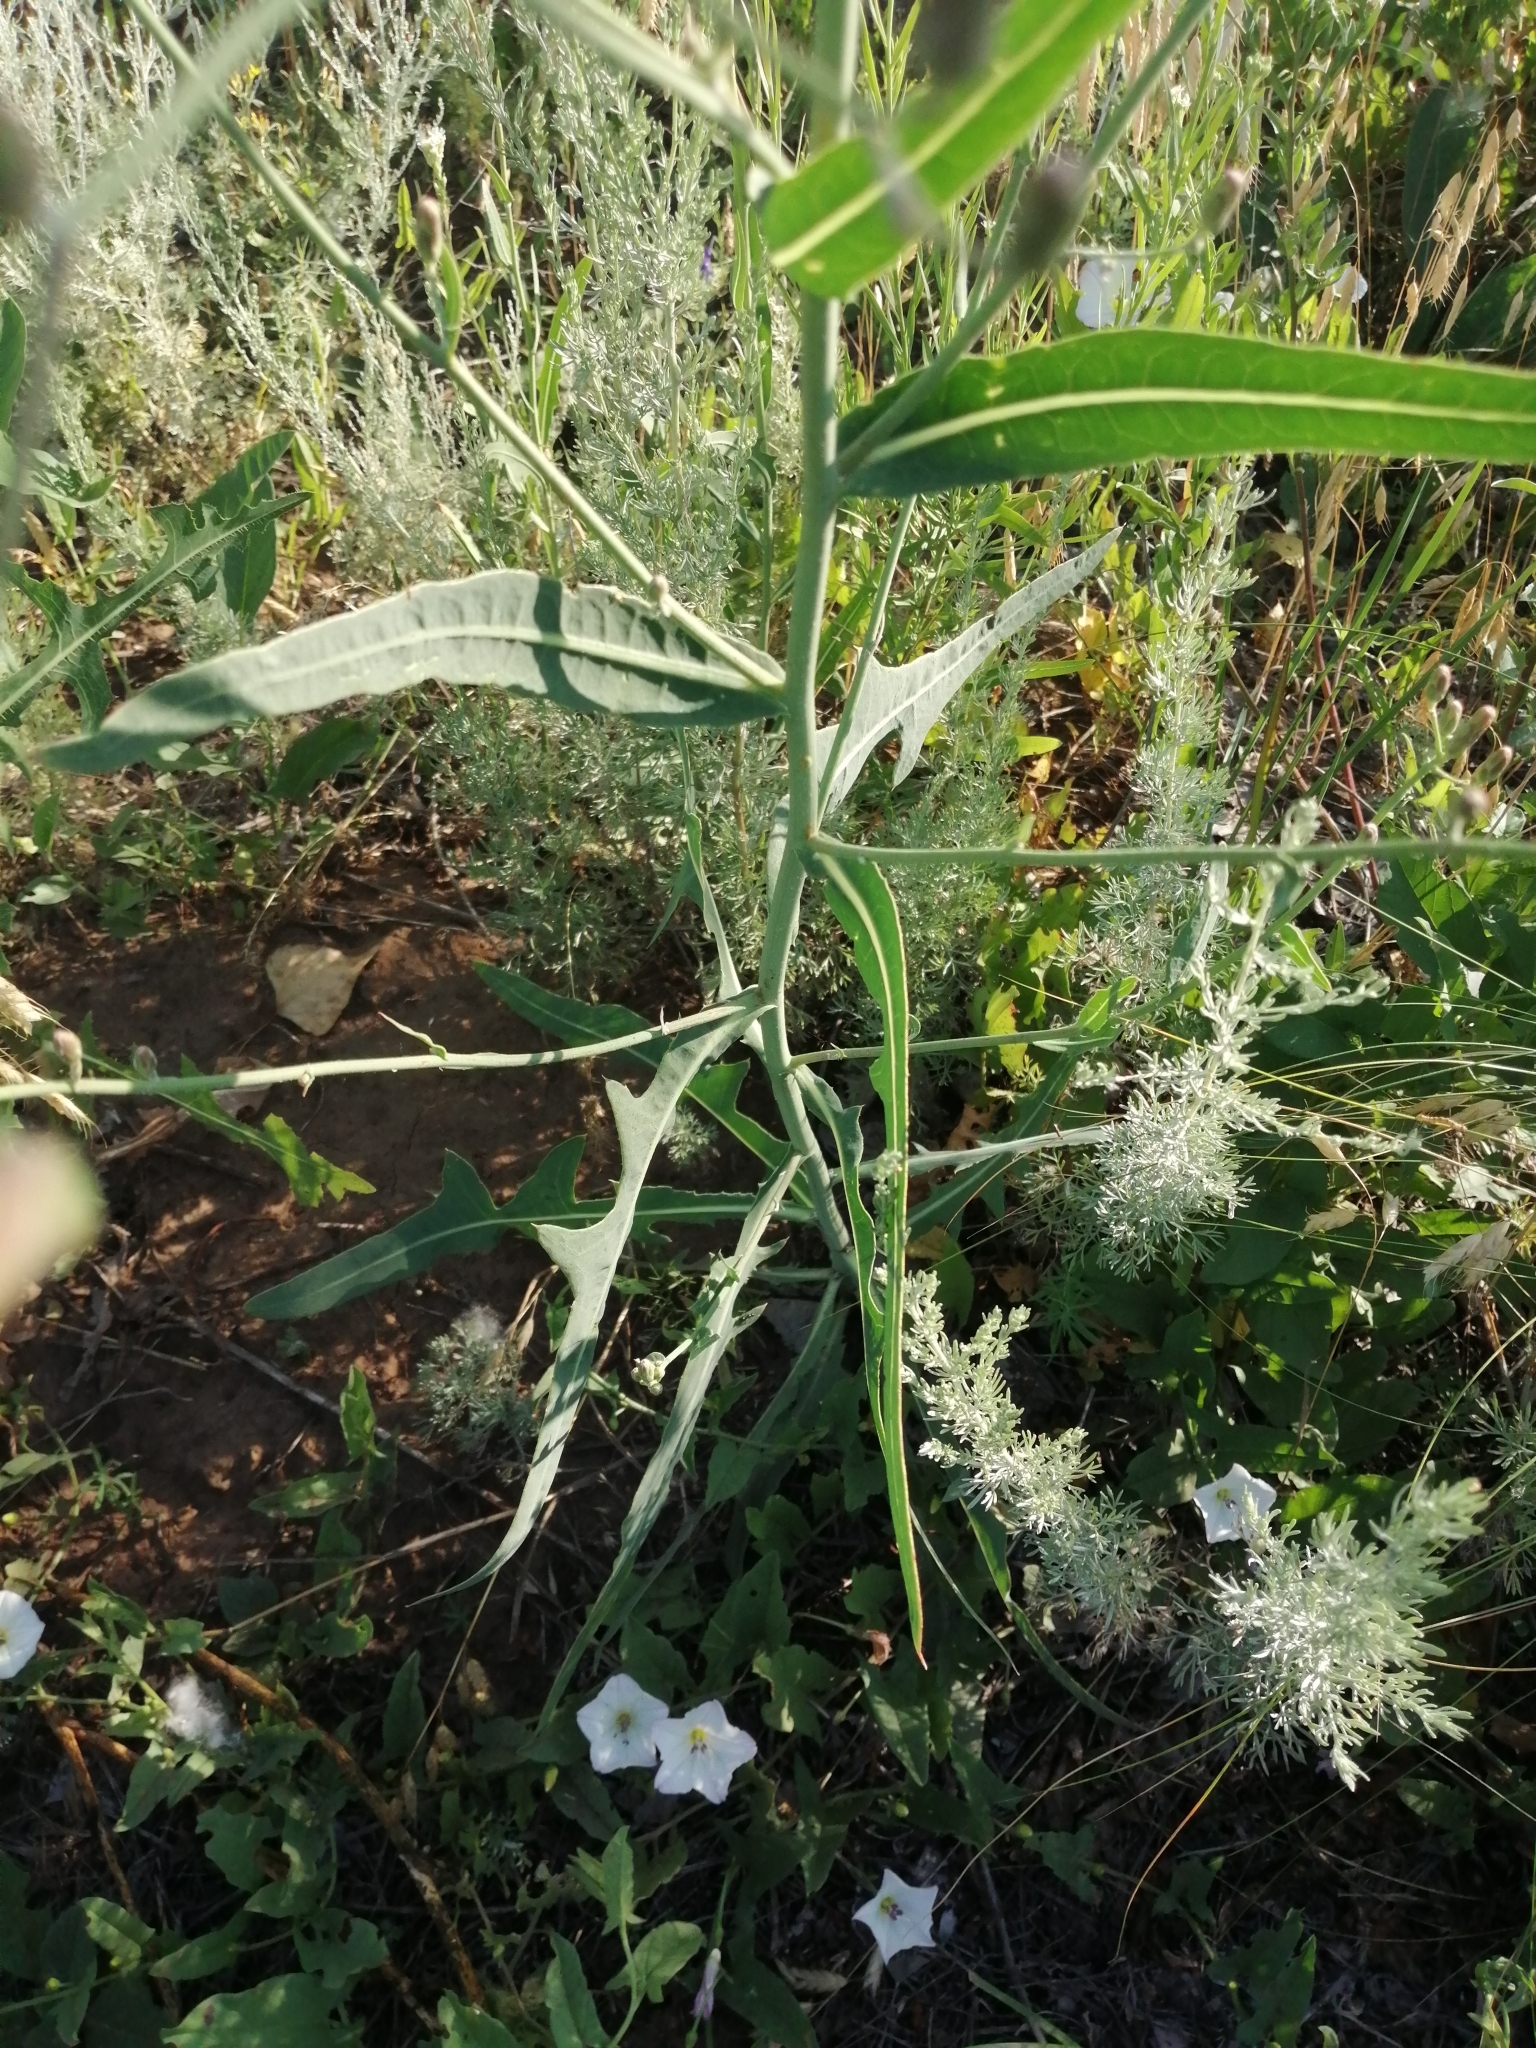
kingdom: Plantae
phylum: Tracheophyta
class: Magnoliopsida
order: Asterales
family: Asteraceae
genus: Lactuca
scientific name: Lactuca tatarica
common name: Blue lettuce
